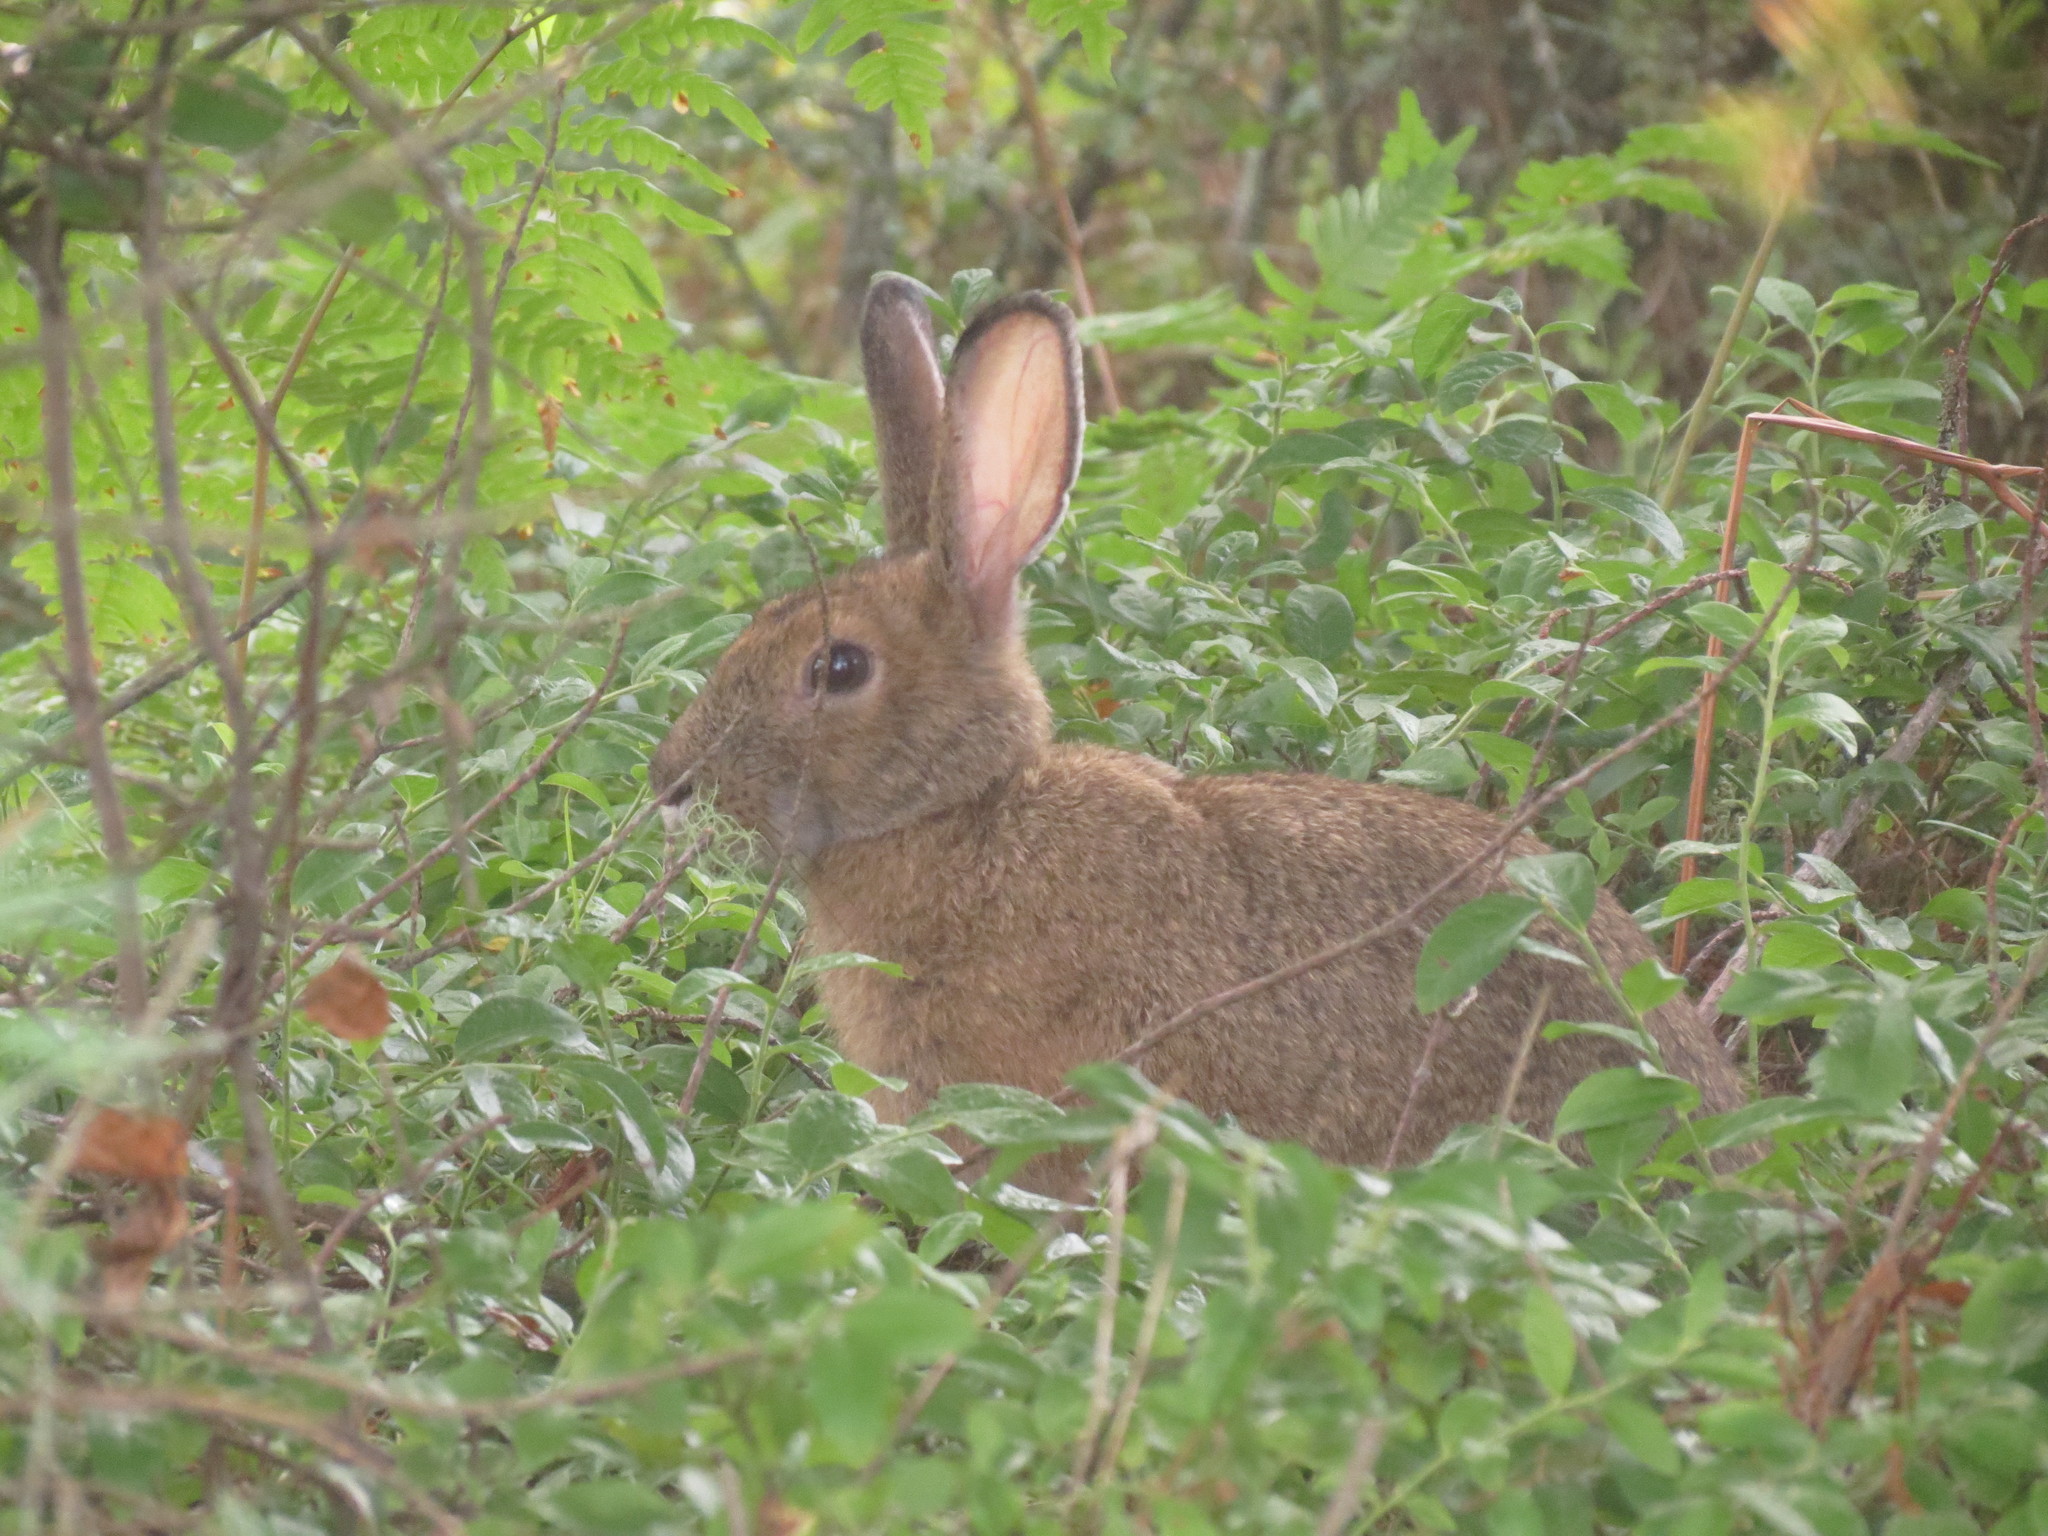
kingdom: Animalia
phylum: Chordata
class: Mammalia
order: Lagomorpha
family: Leporidae
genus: Lepus
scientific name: Lepus americanus
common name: Snowshoe hare
